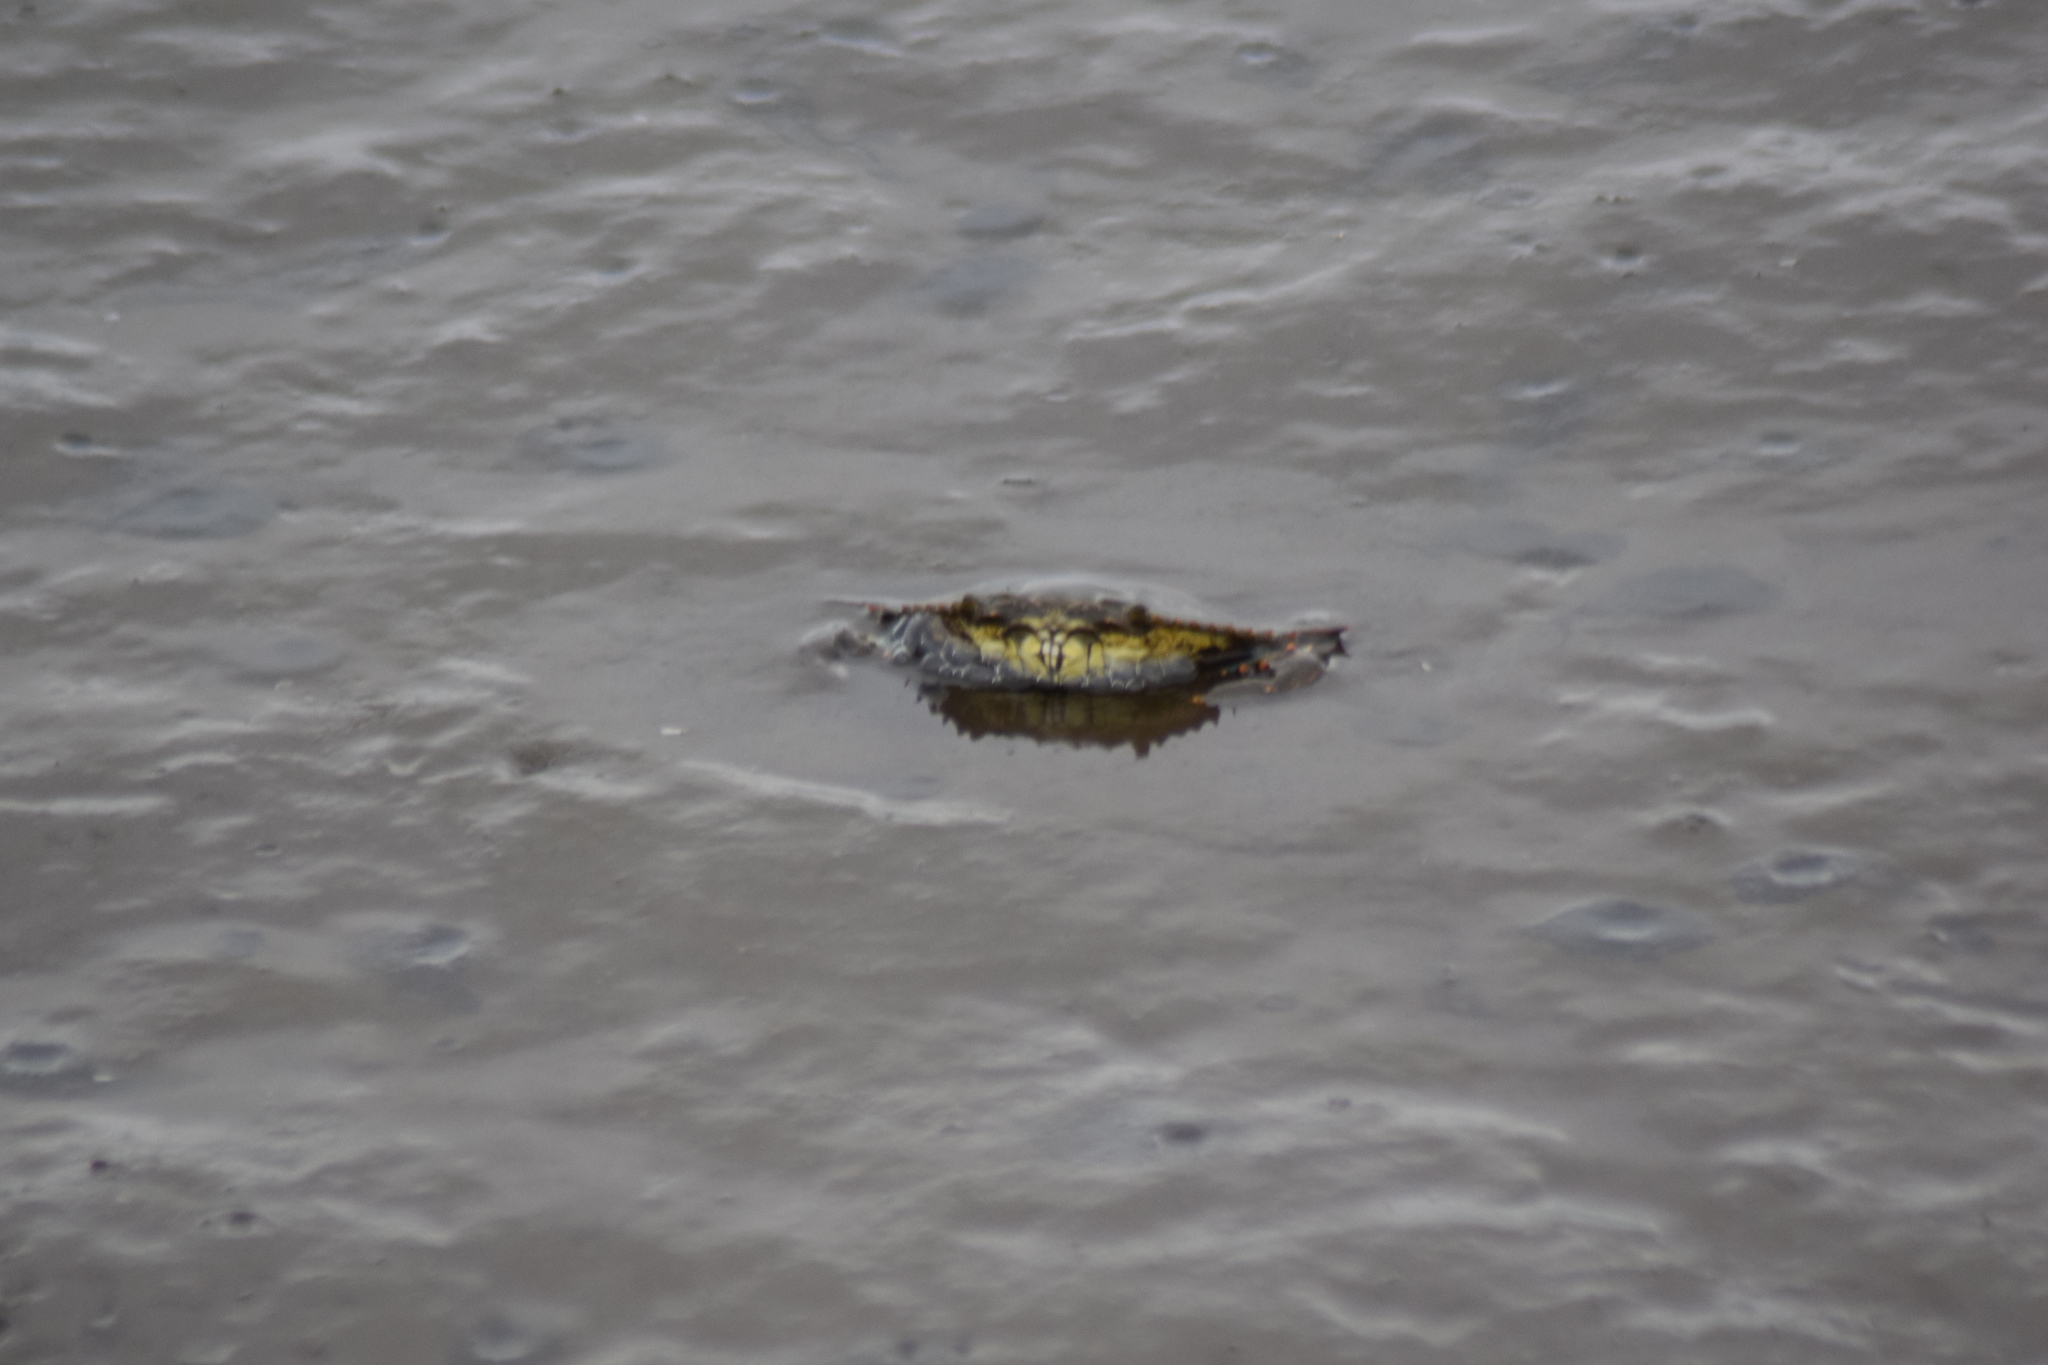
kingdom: Animalia
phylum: Arthropoda
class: Malacostraca
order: Decapoda
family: Portunidae
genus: Callinectes
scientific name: Callinectes sapidus
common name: Blue crab
